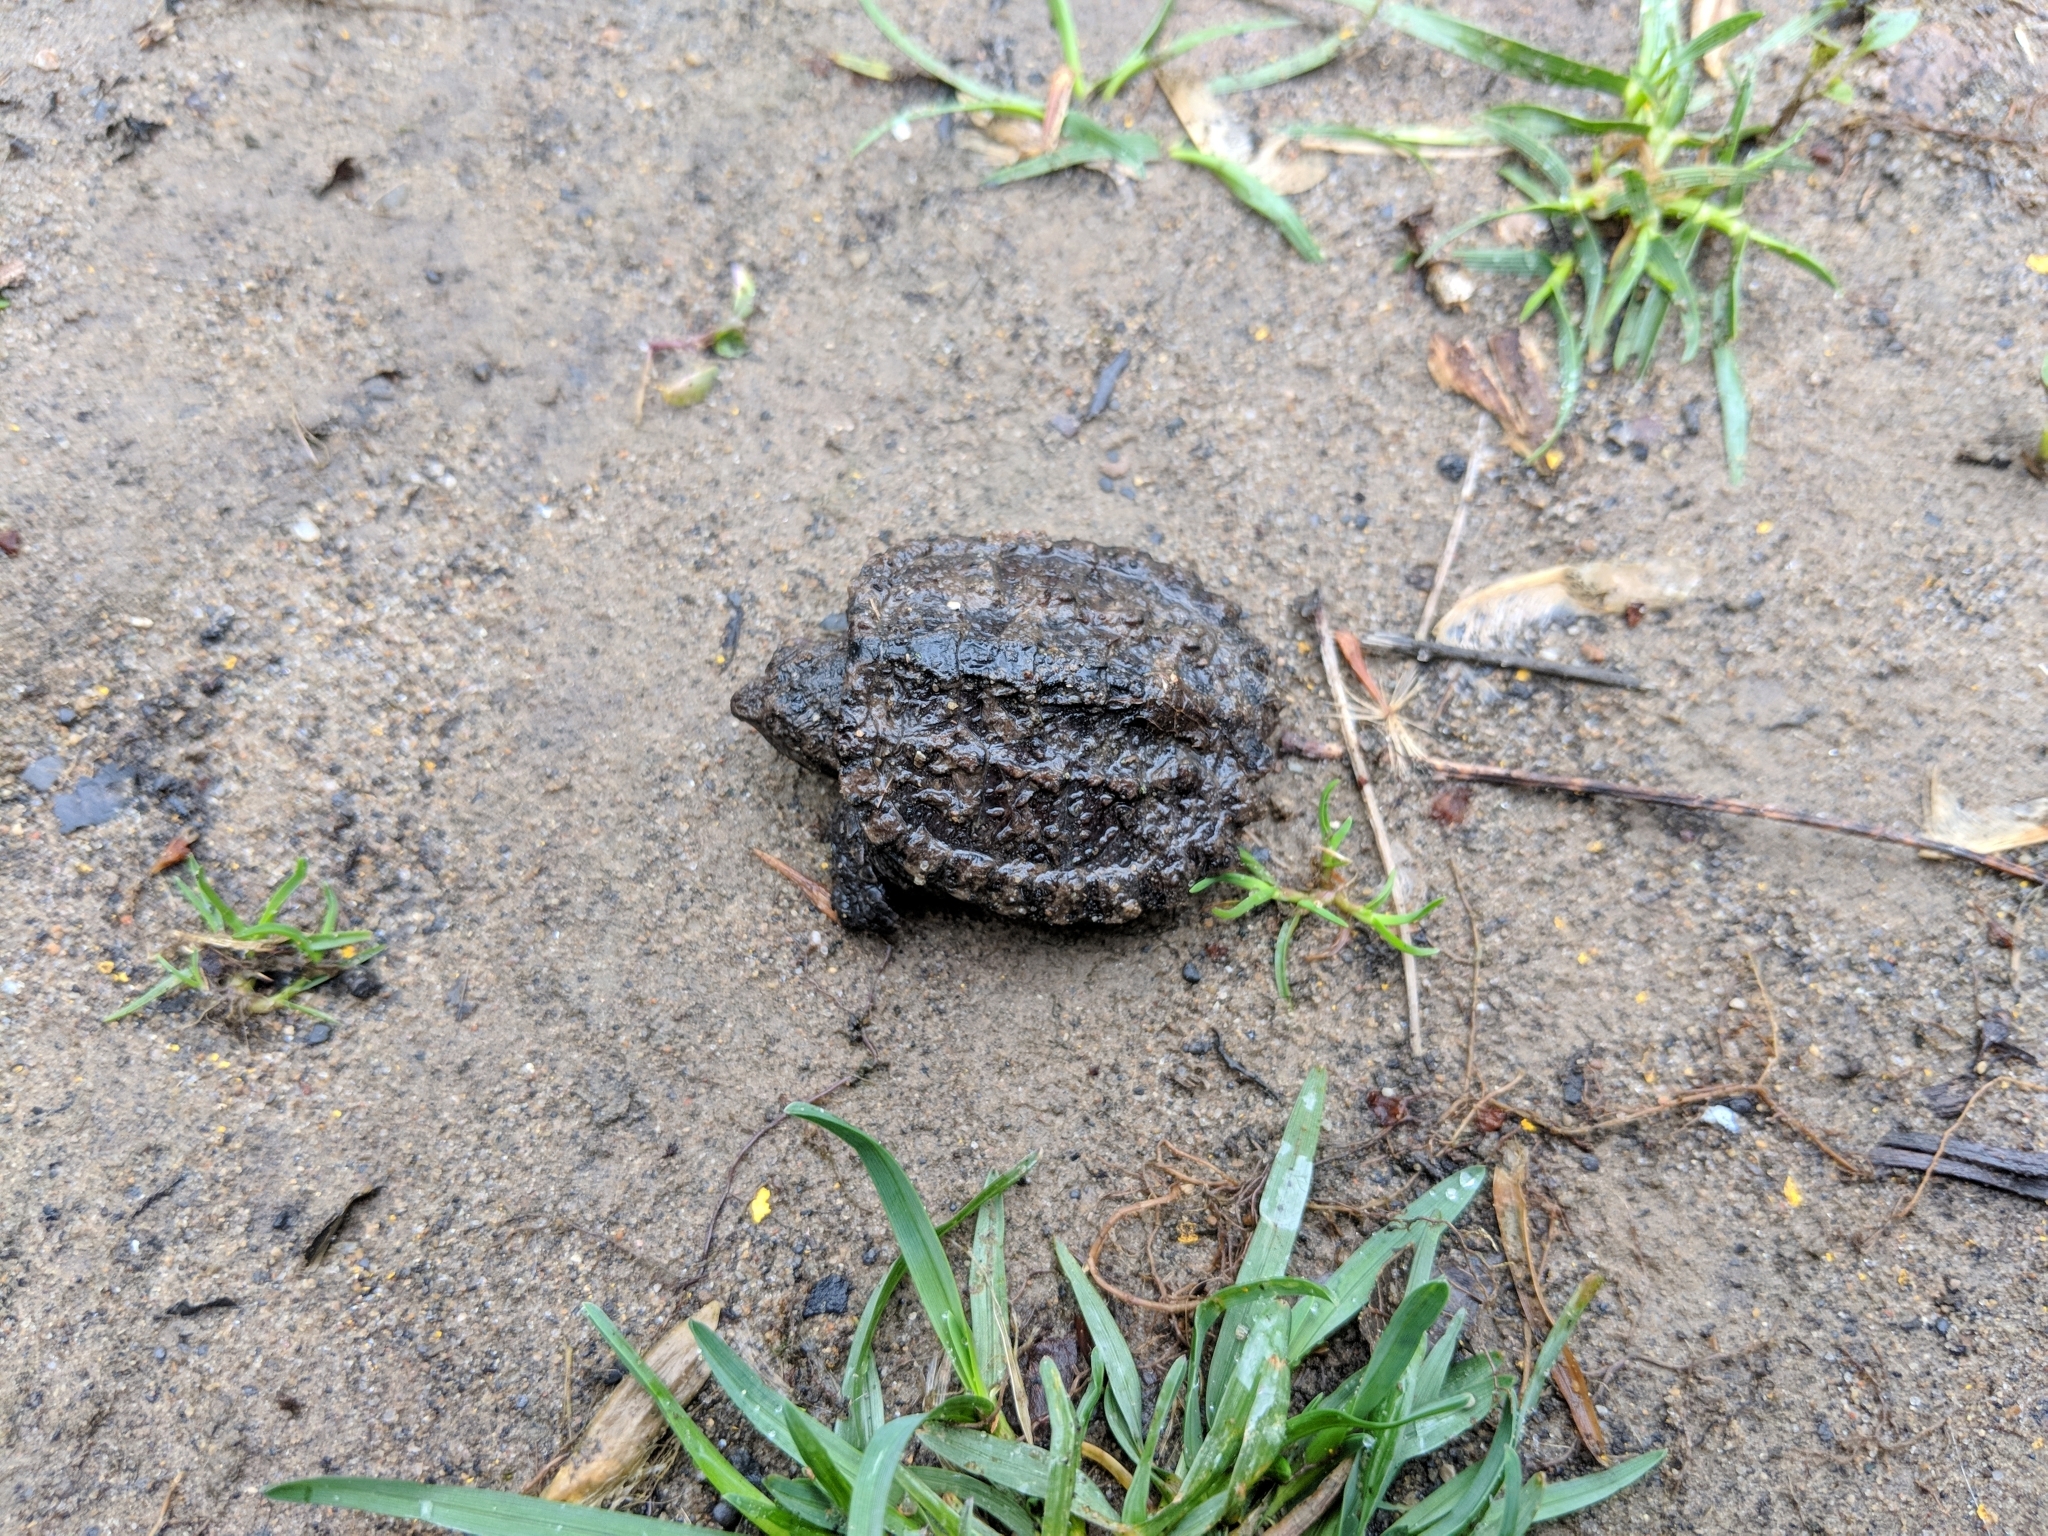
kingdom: Animalia
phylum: Chordata
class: Testudines
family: Chelydridae
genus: Chelydra
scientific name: Chelydra serpentina
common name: Common snapping turtle
